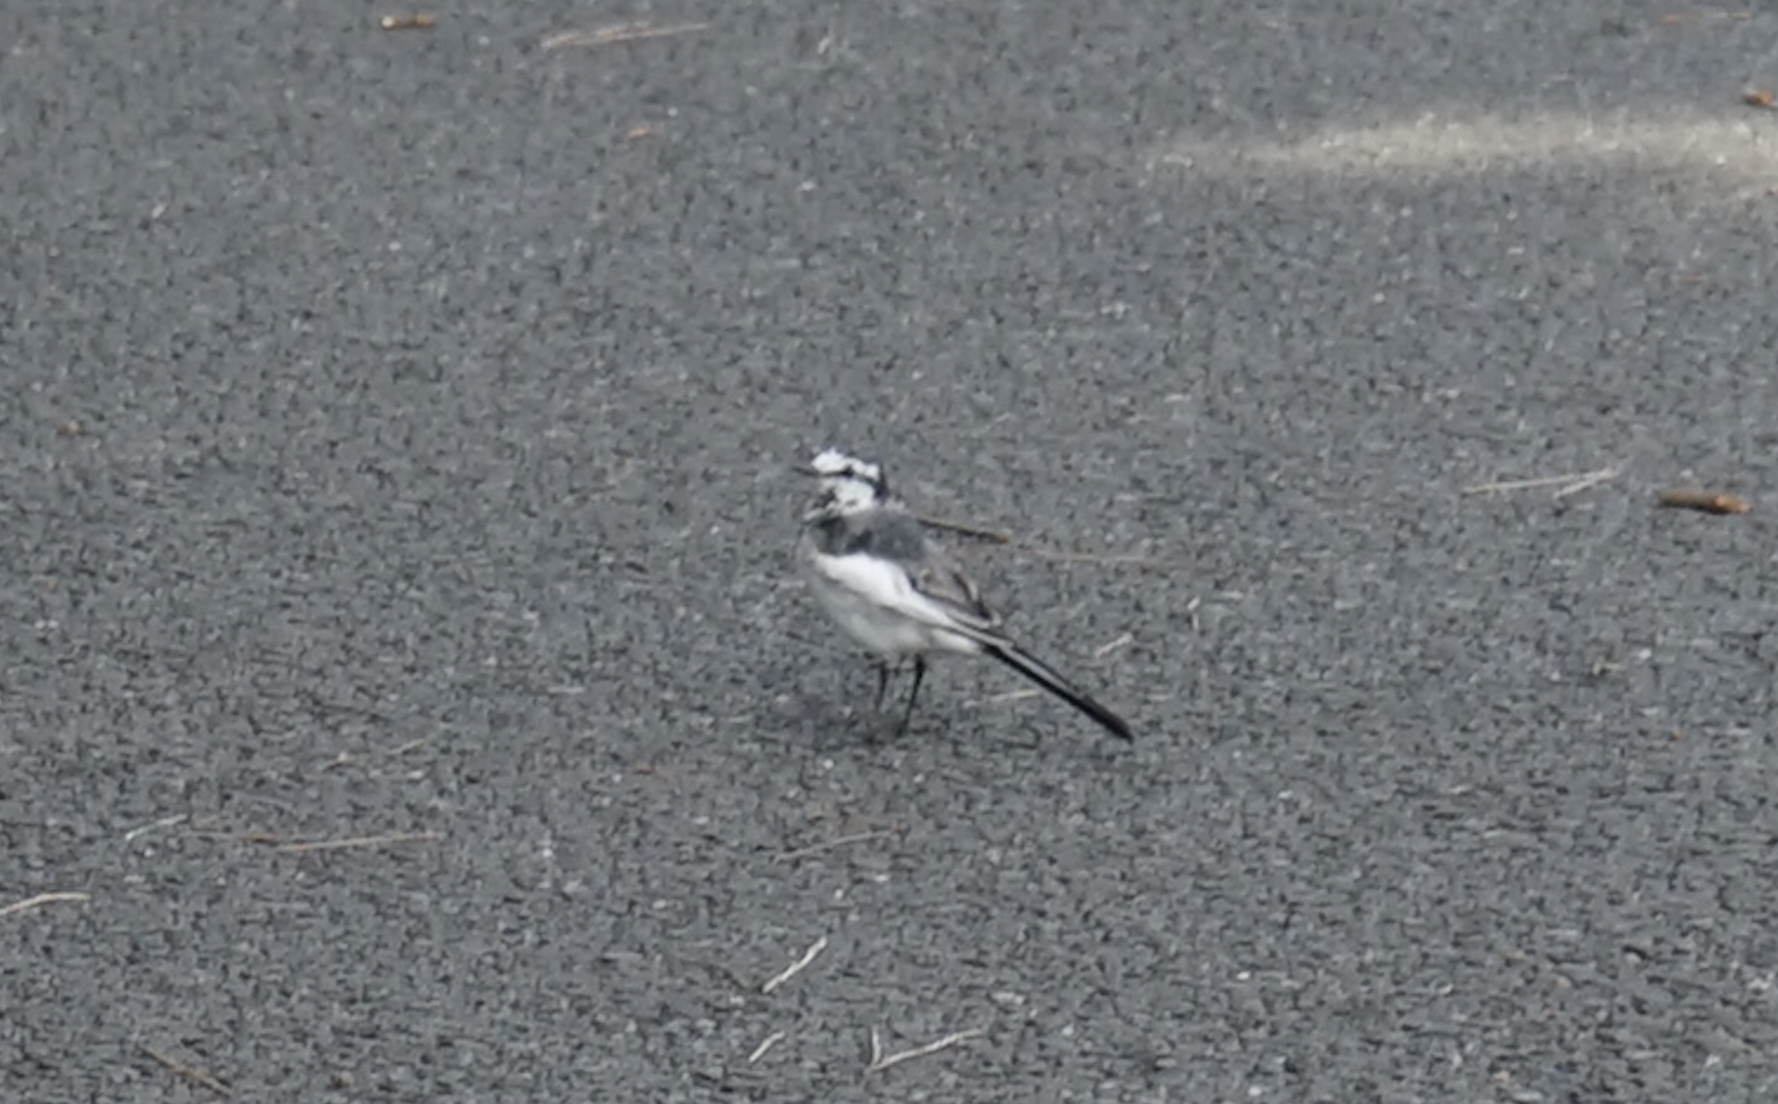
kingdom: Animalia
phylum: Chordata
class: Aves
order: Passeriformes
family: Motacillidae
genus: Motacilla
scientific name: Motacilla alba
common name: White wagtail
